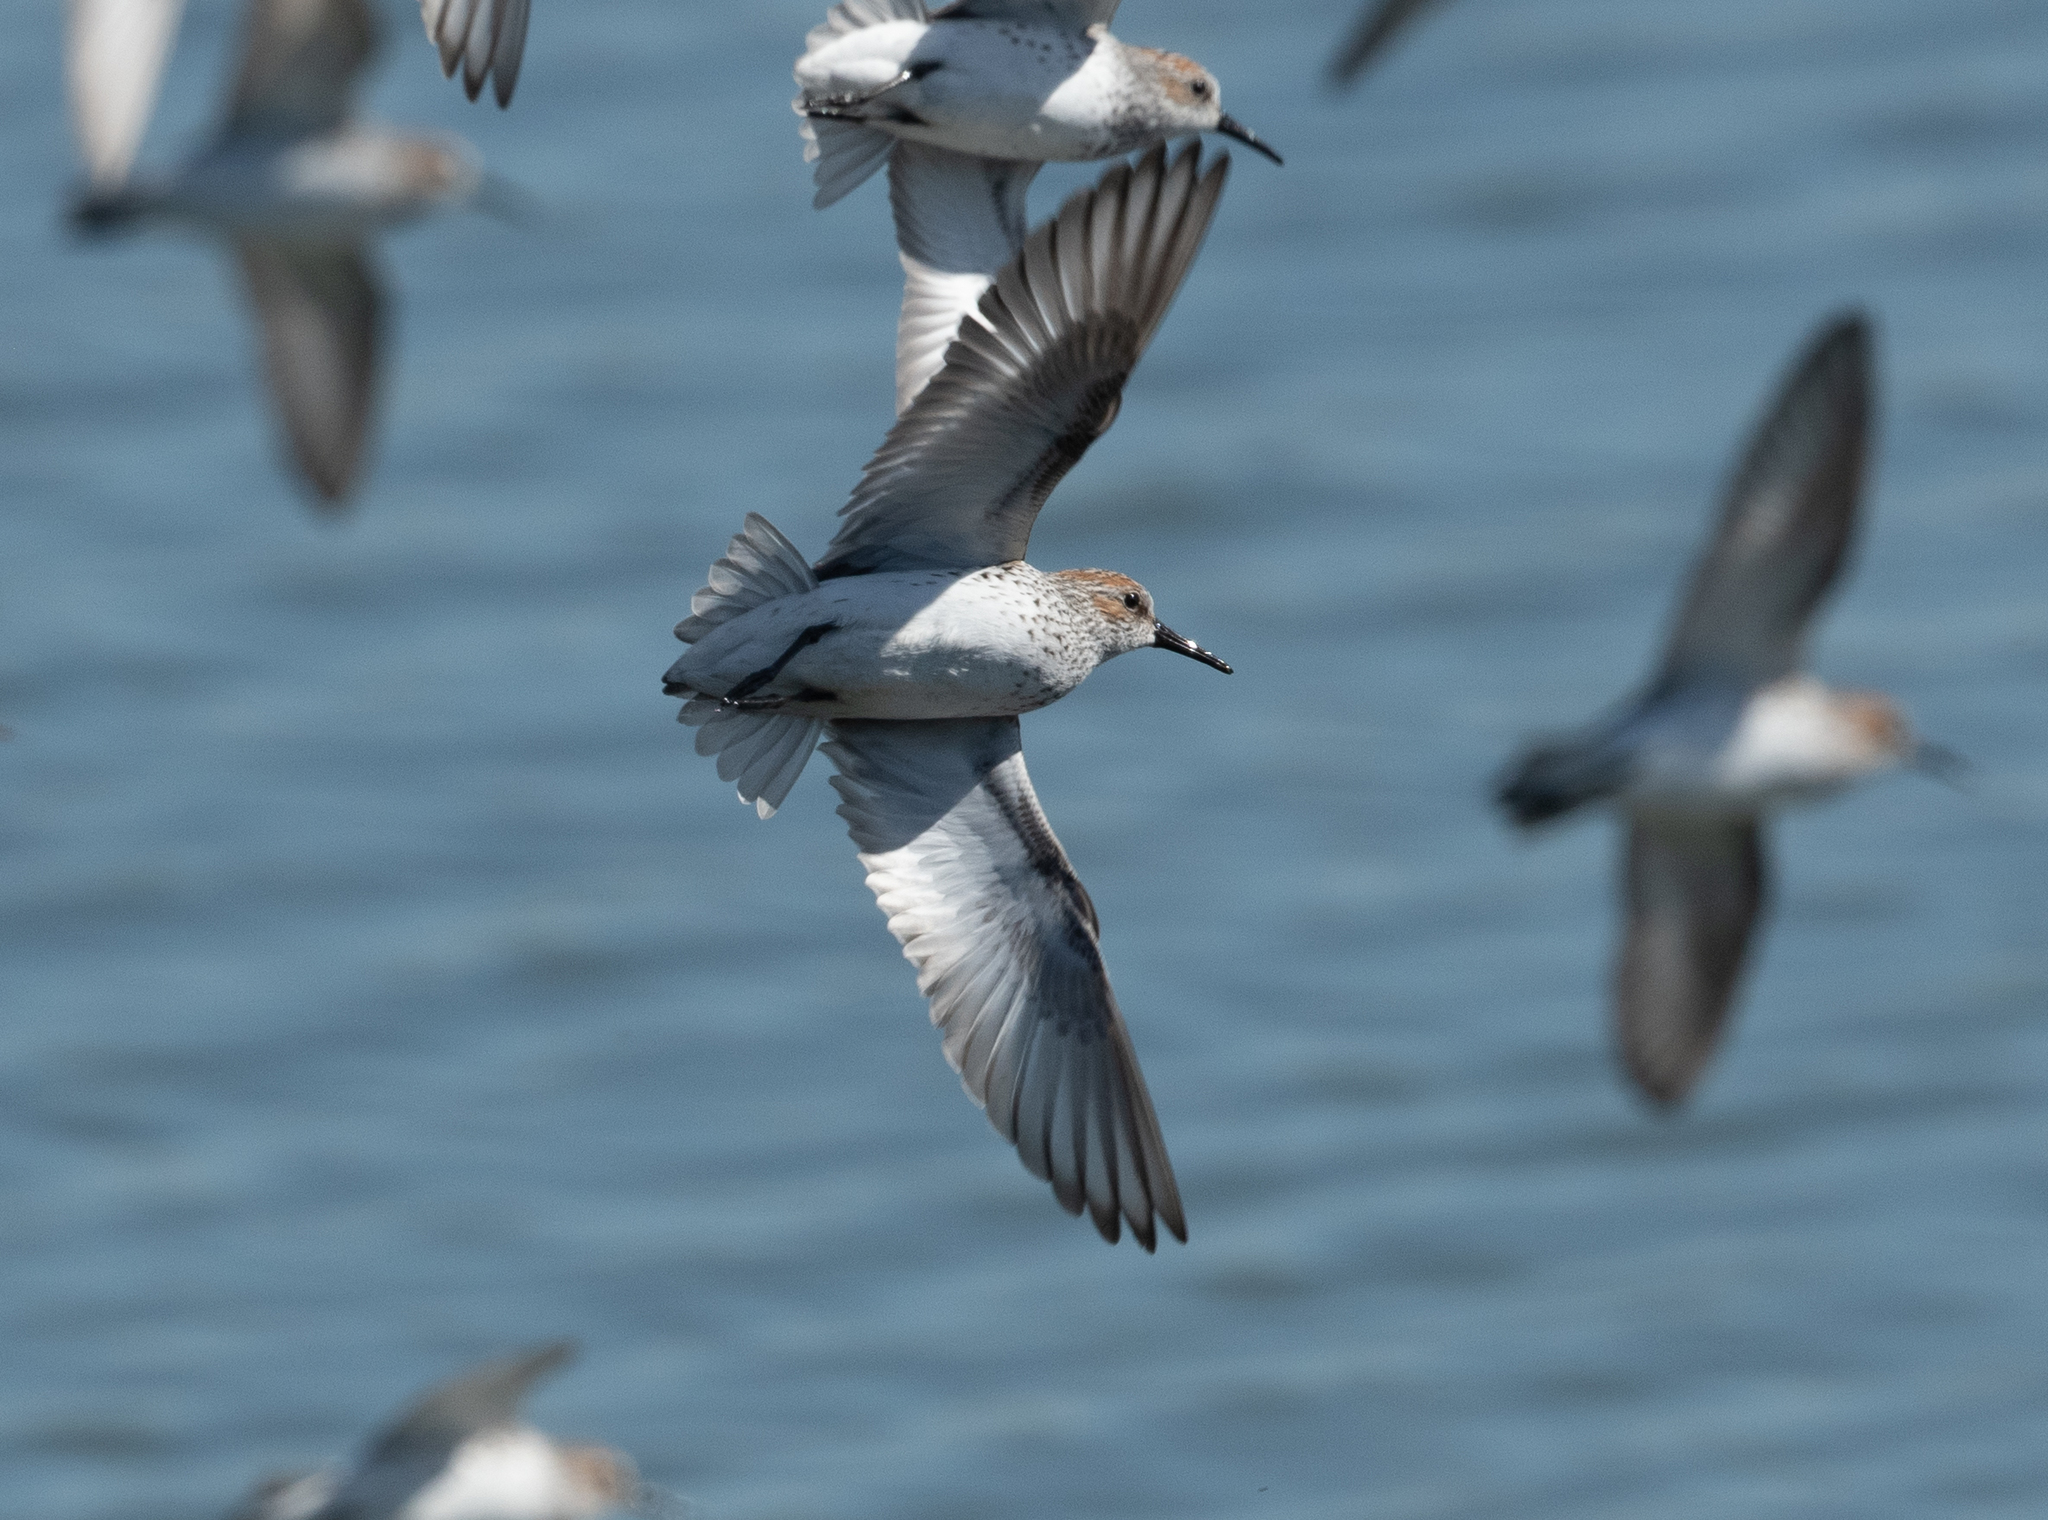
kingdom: Animalia
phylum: Chordata
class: Aves
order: Charadriiformes
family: Scolopacidae
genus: Calidris
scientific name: Calidris mauri
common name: Western sandpiper
